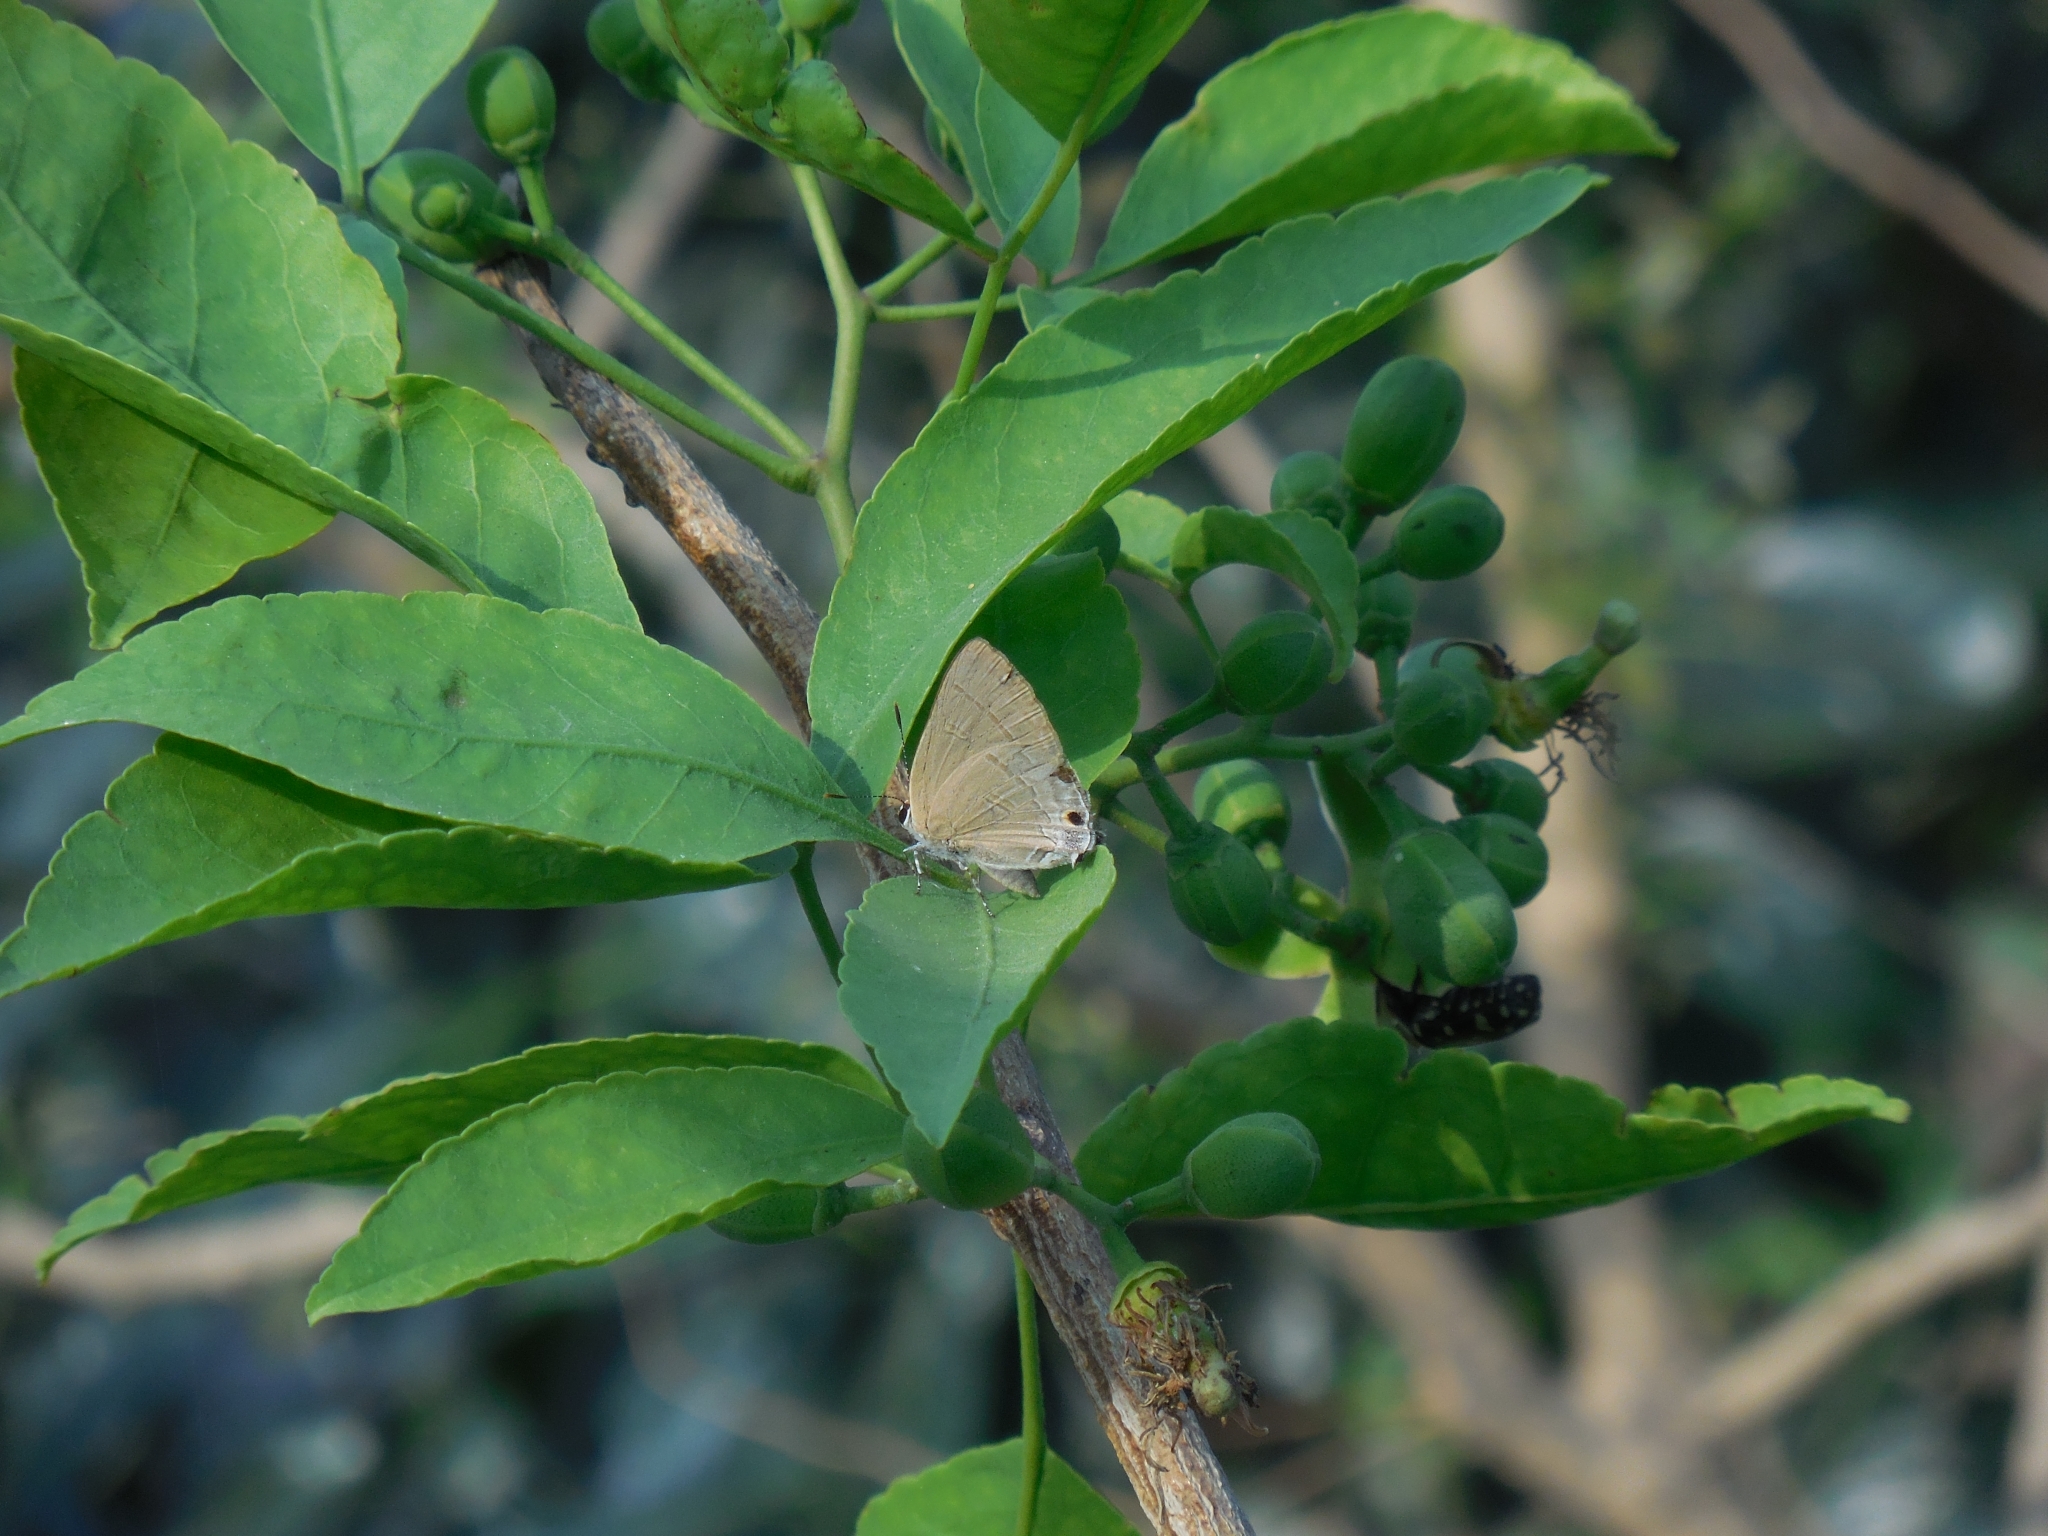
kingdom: Animalia
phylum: Arthropoda
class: Insecta
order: Lepidoptera
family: Lycaenidae
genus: Rapala
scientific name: Rapala manea
